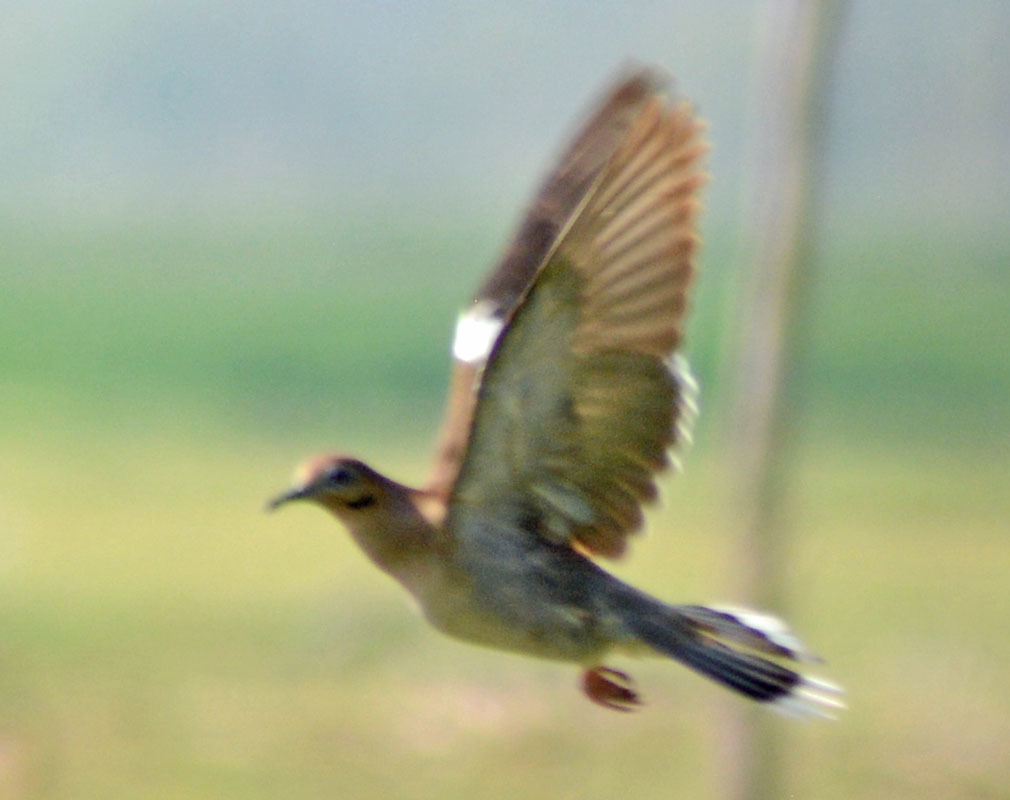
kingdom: Animalia
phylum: Chordata
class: Aves
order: Columbiformes
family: Columbidae
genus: Zenaida
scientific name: Zenaida asiatica
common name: White-winged dove
